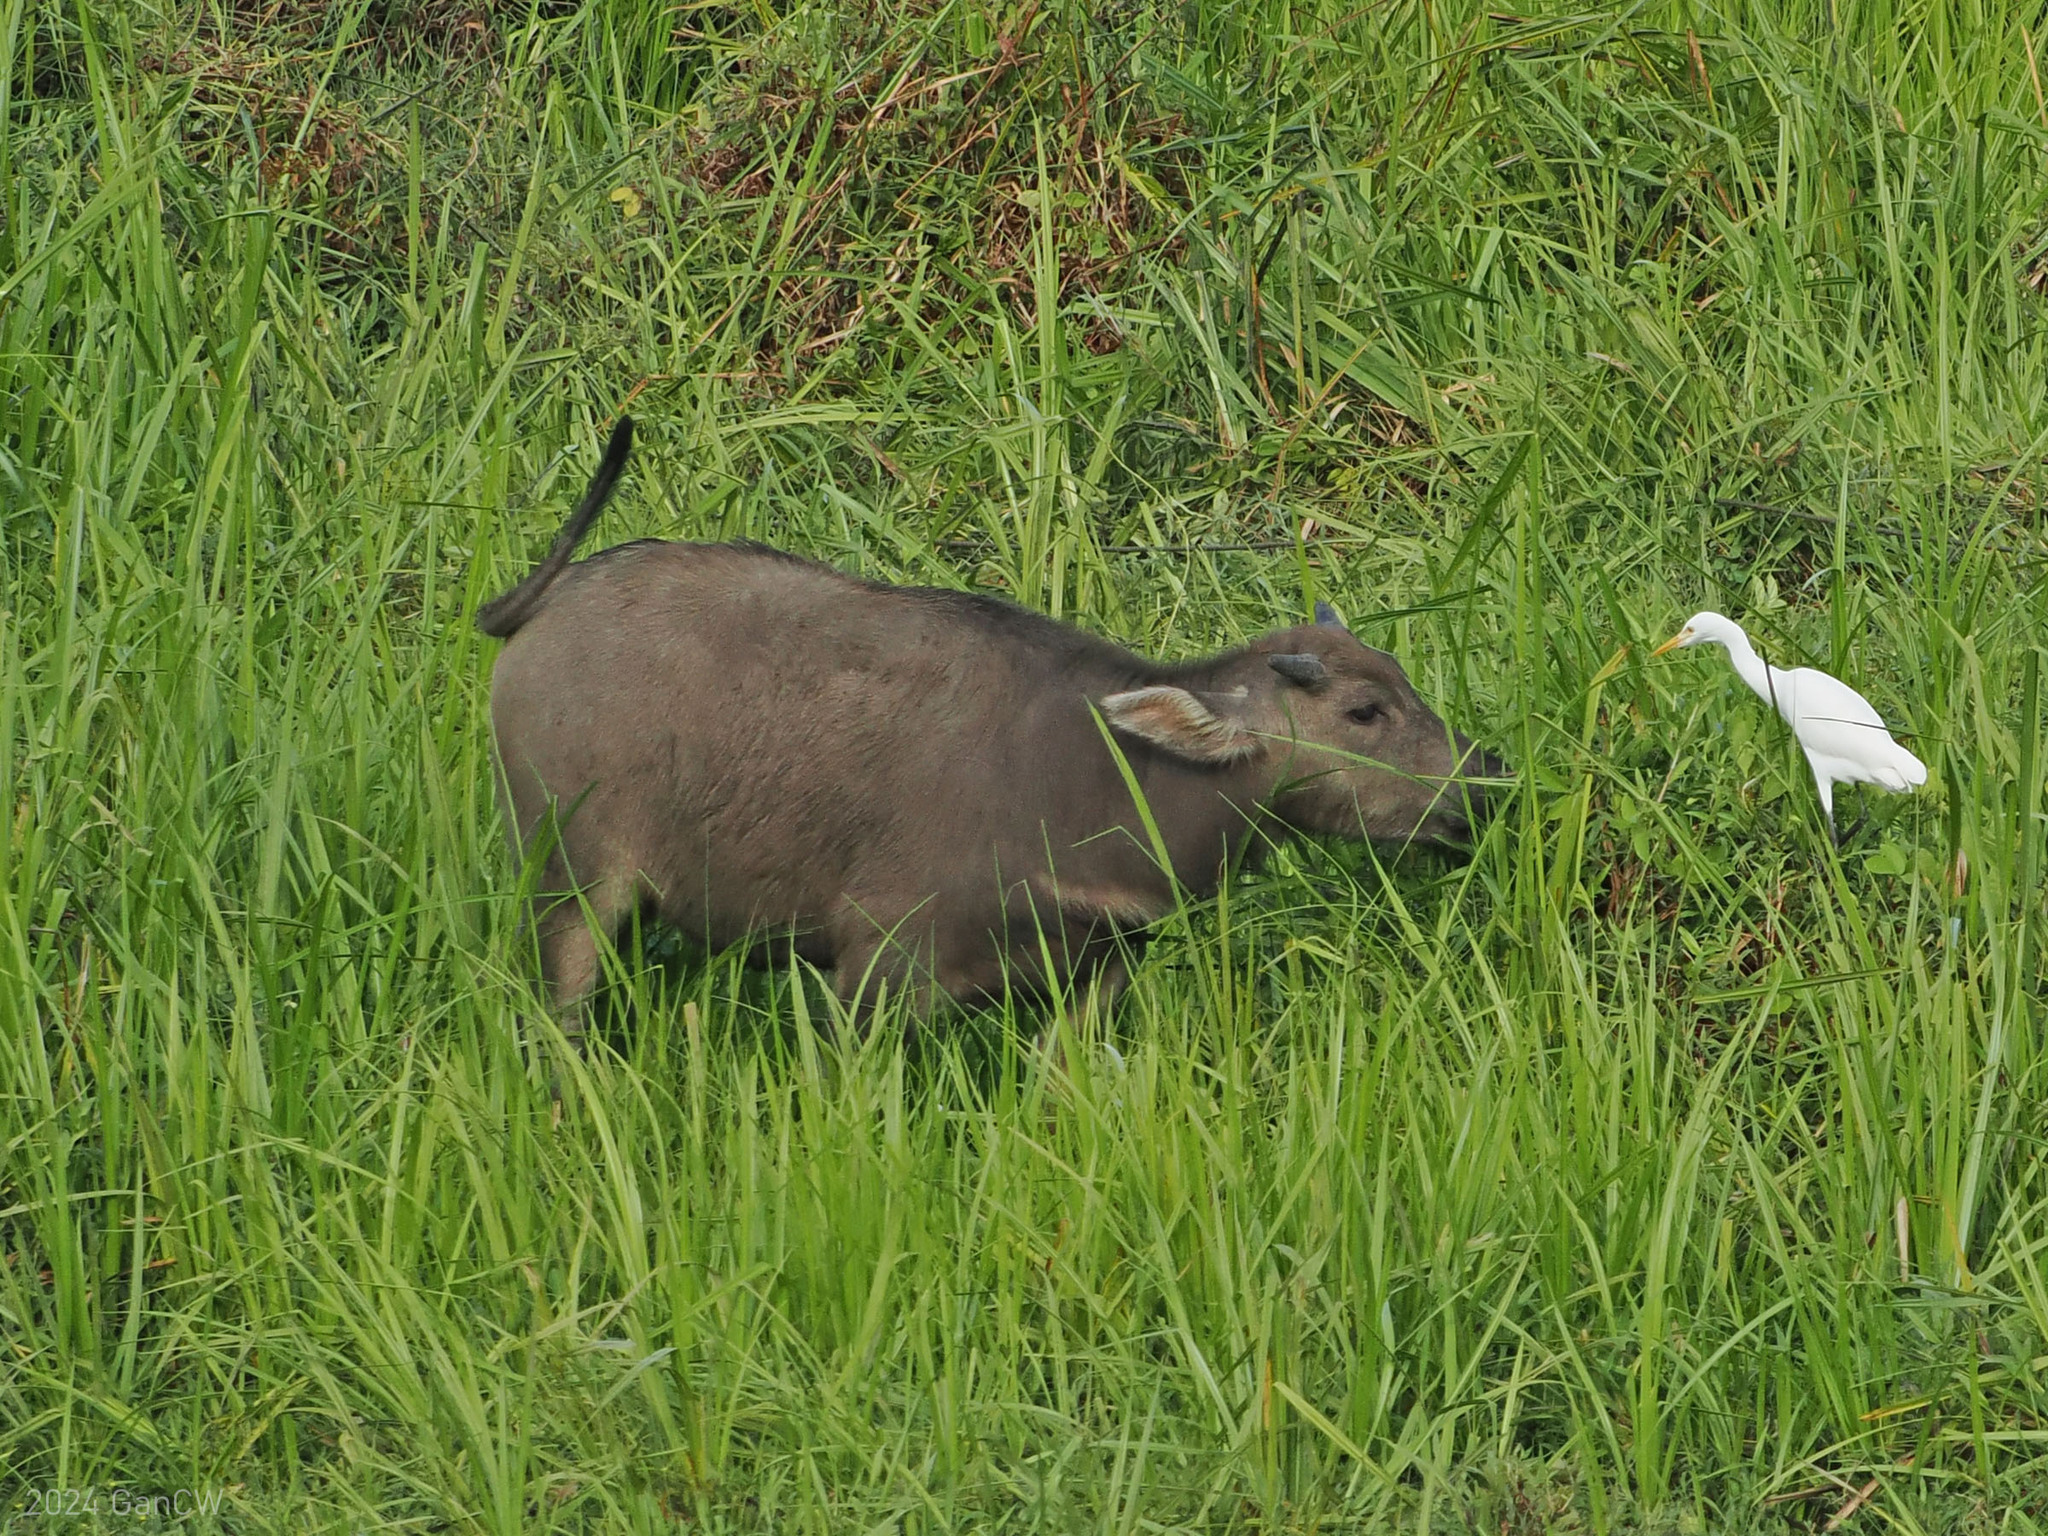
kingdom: Animalia
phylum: Chordata
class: Mammalia
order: Artiodactyla
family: Bovidae
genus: Bubalus
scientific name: Bubalus bubalis
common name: Water buffalo
